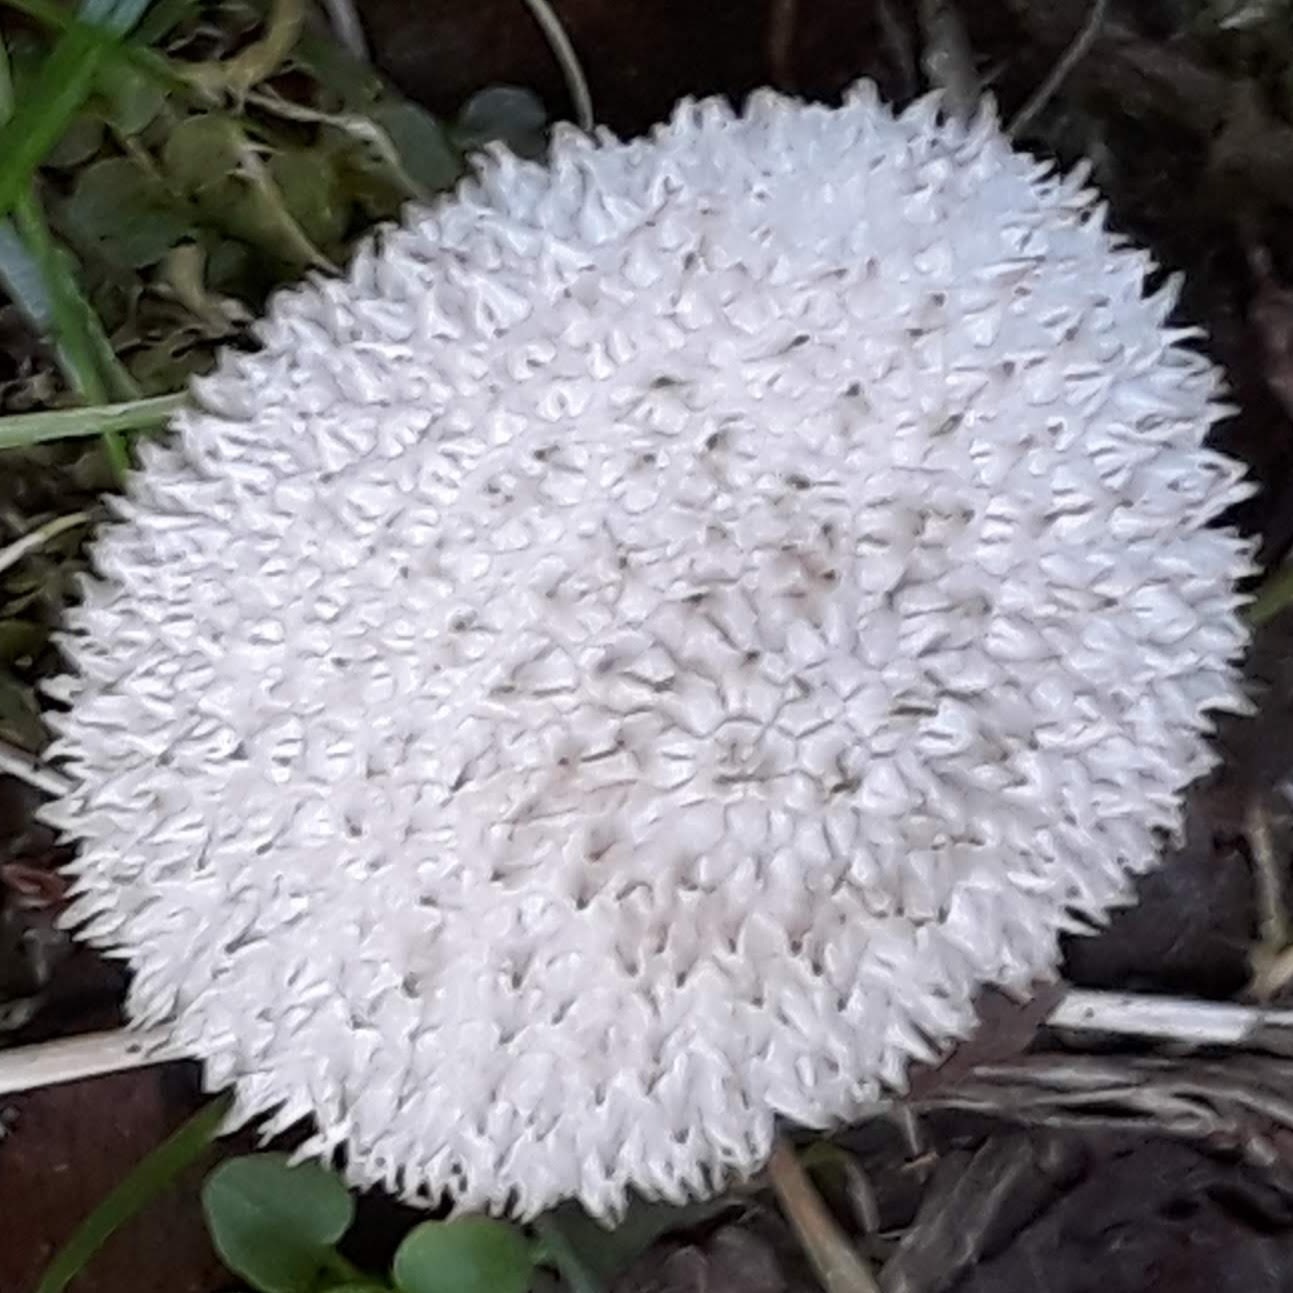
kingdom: Fungi
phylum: Basidiomycota
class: Agaricomycetes
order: Agaricales
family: Agaricaceae
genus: Lycoperdon
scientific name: Lycoperdon marginatum
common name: Peeling puffball
